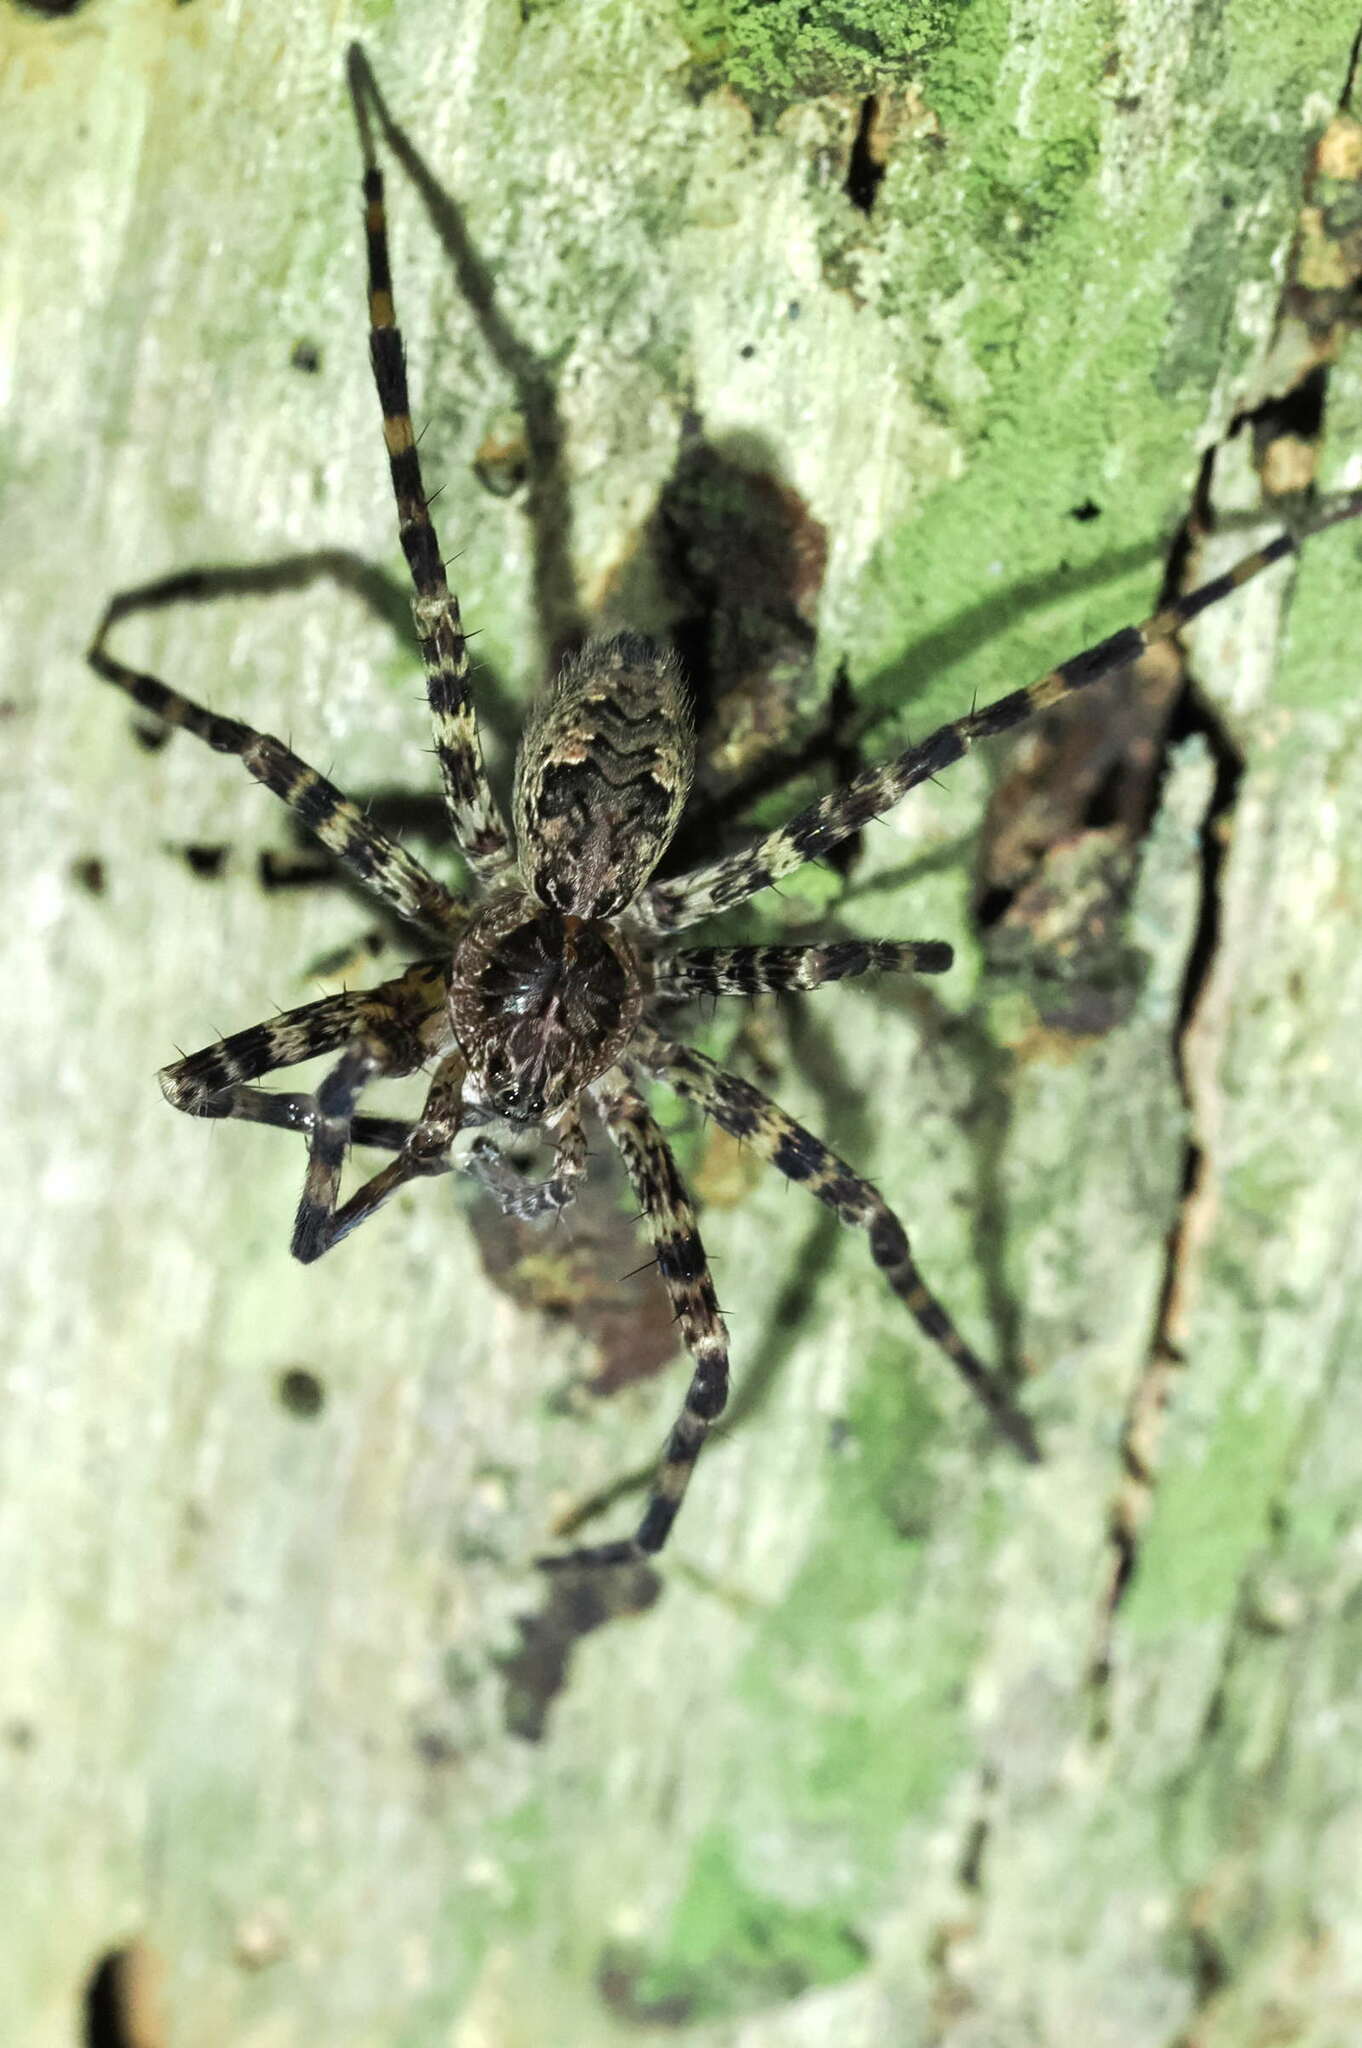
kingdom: Animalia
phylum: Arthropoda
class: Arachnida
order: Araneae
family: Pisauridae
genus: Dolomedes
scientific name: Dolomedes tenebrosus
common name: Dark fishing spider
